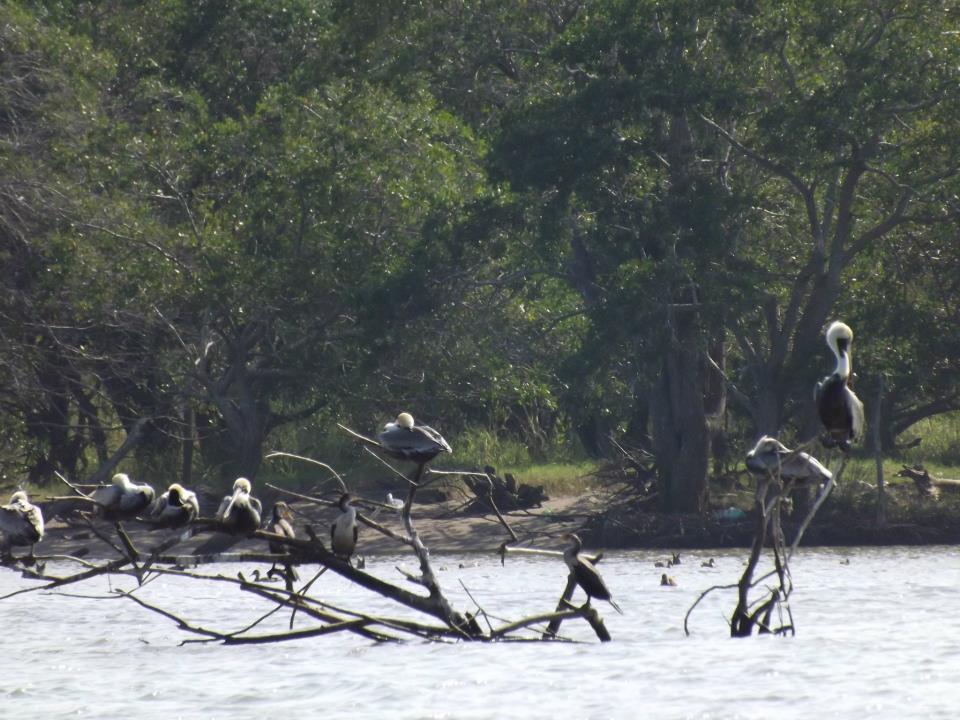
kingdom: Animalia
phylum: Chordata
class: Aves
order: Pelecaniformes
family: Pelecanidae
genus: Pelecanus
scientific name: Pelecanus occidentalis
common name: Brown pelican
